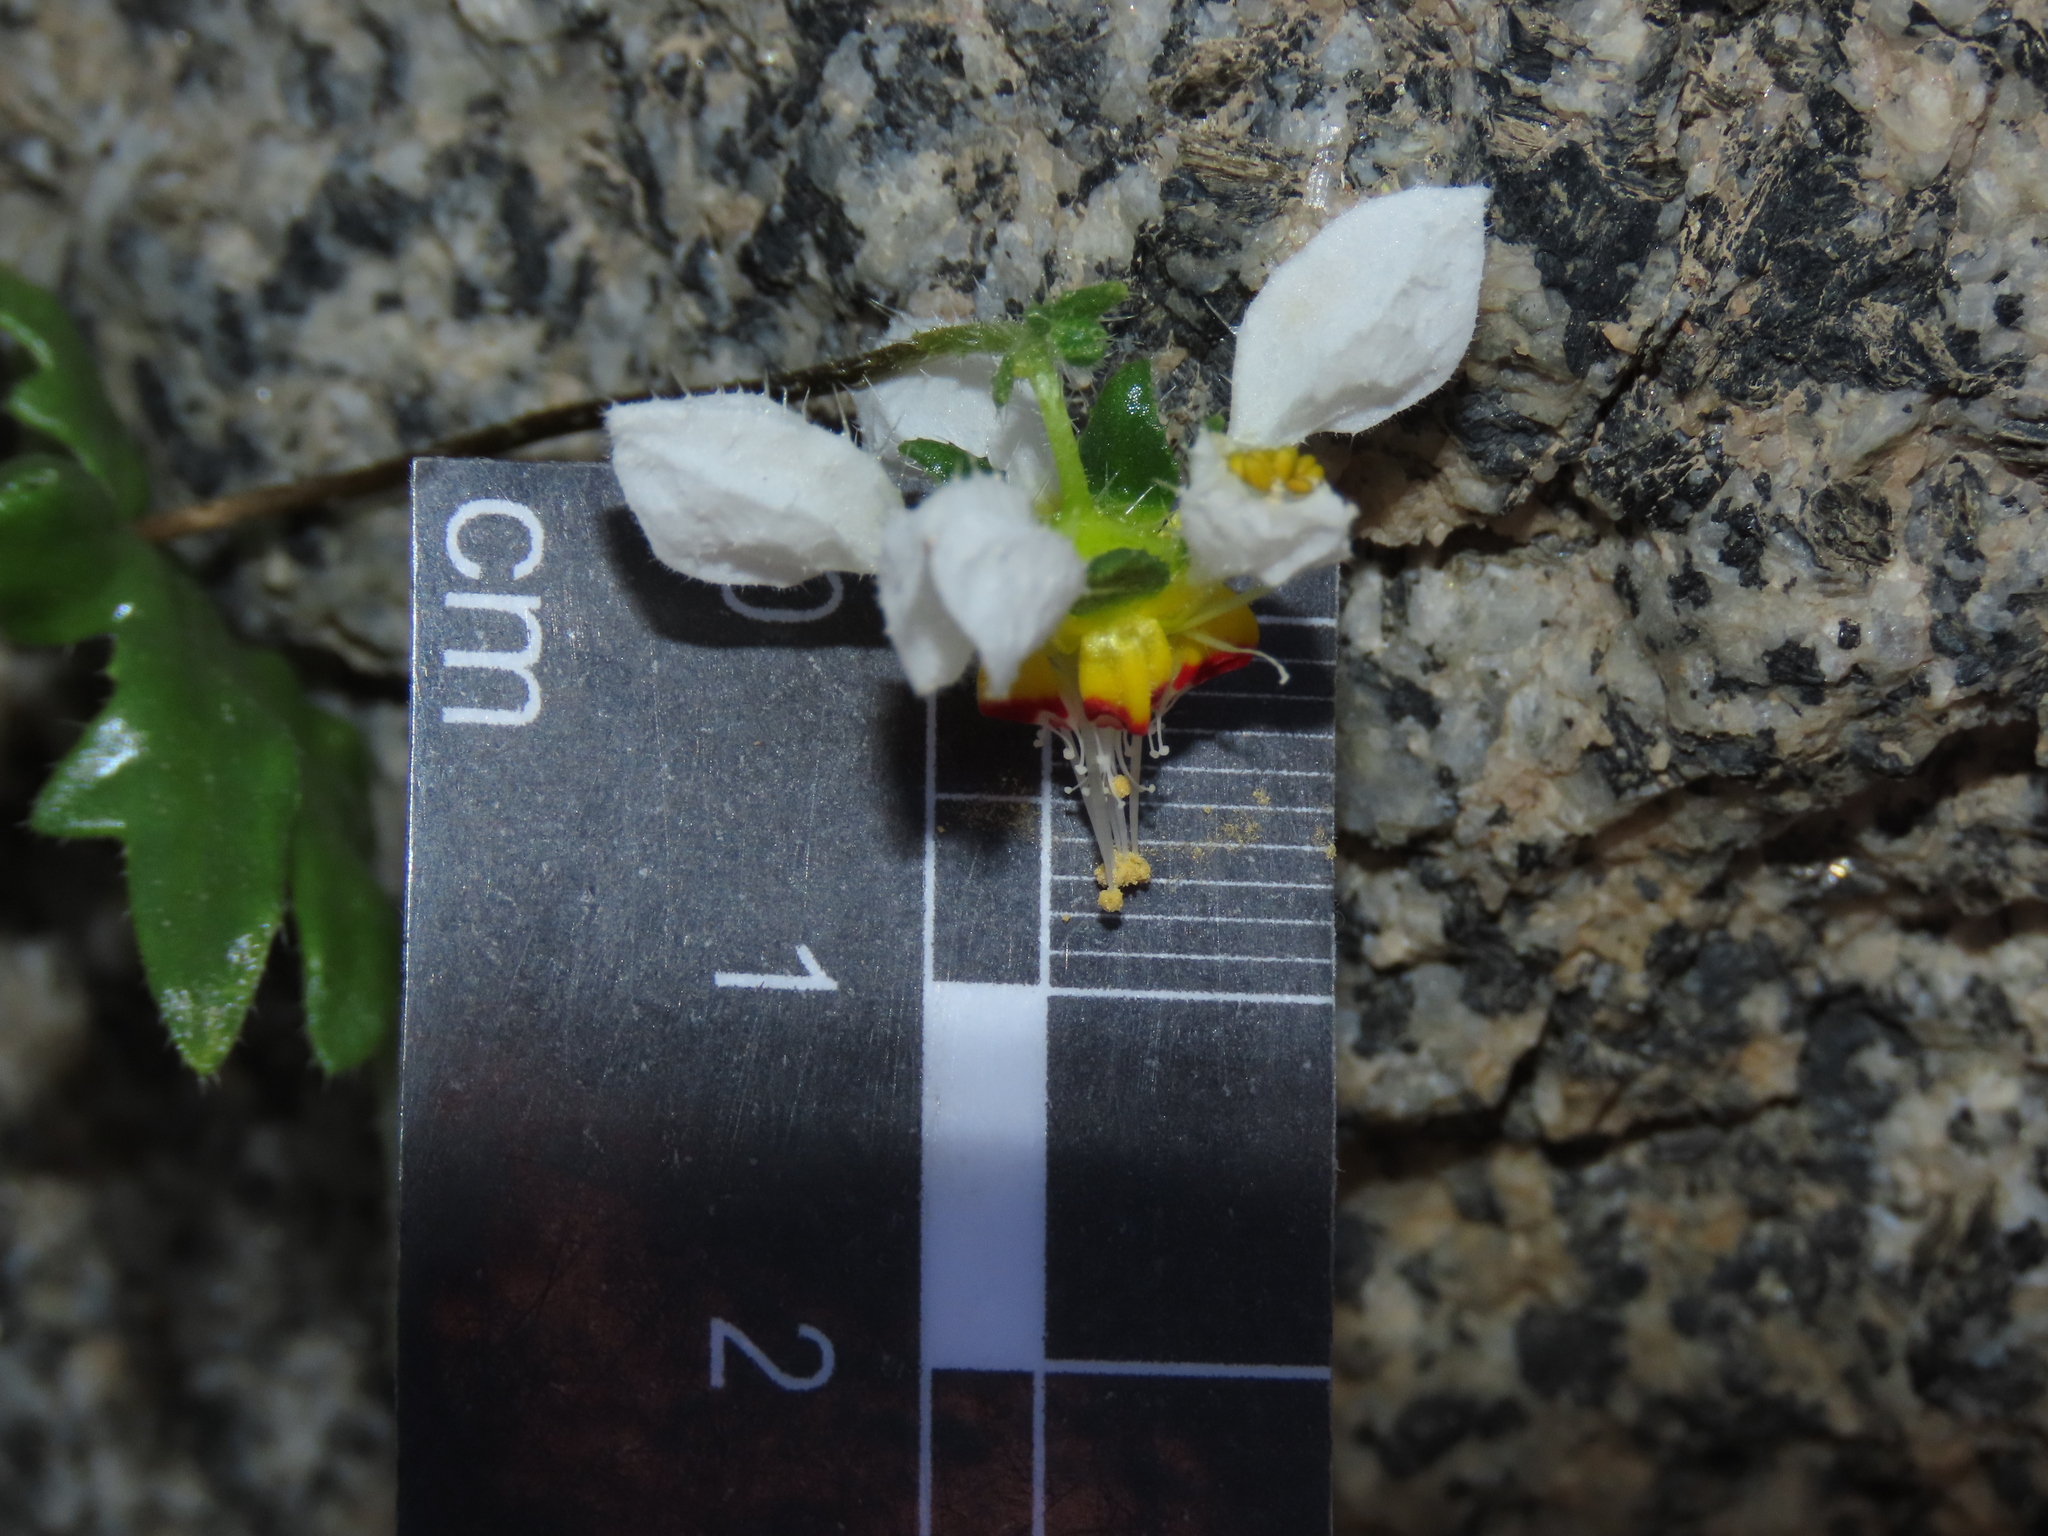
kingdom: Plantae
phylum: Tracheophyta
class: Magnoliopsida
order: Cornales
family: Loasaceae
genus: Loasa
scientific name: Loasa elongata
